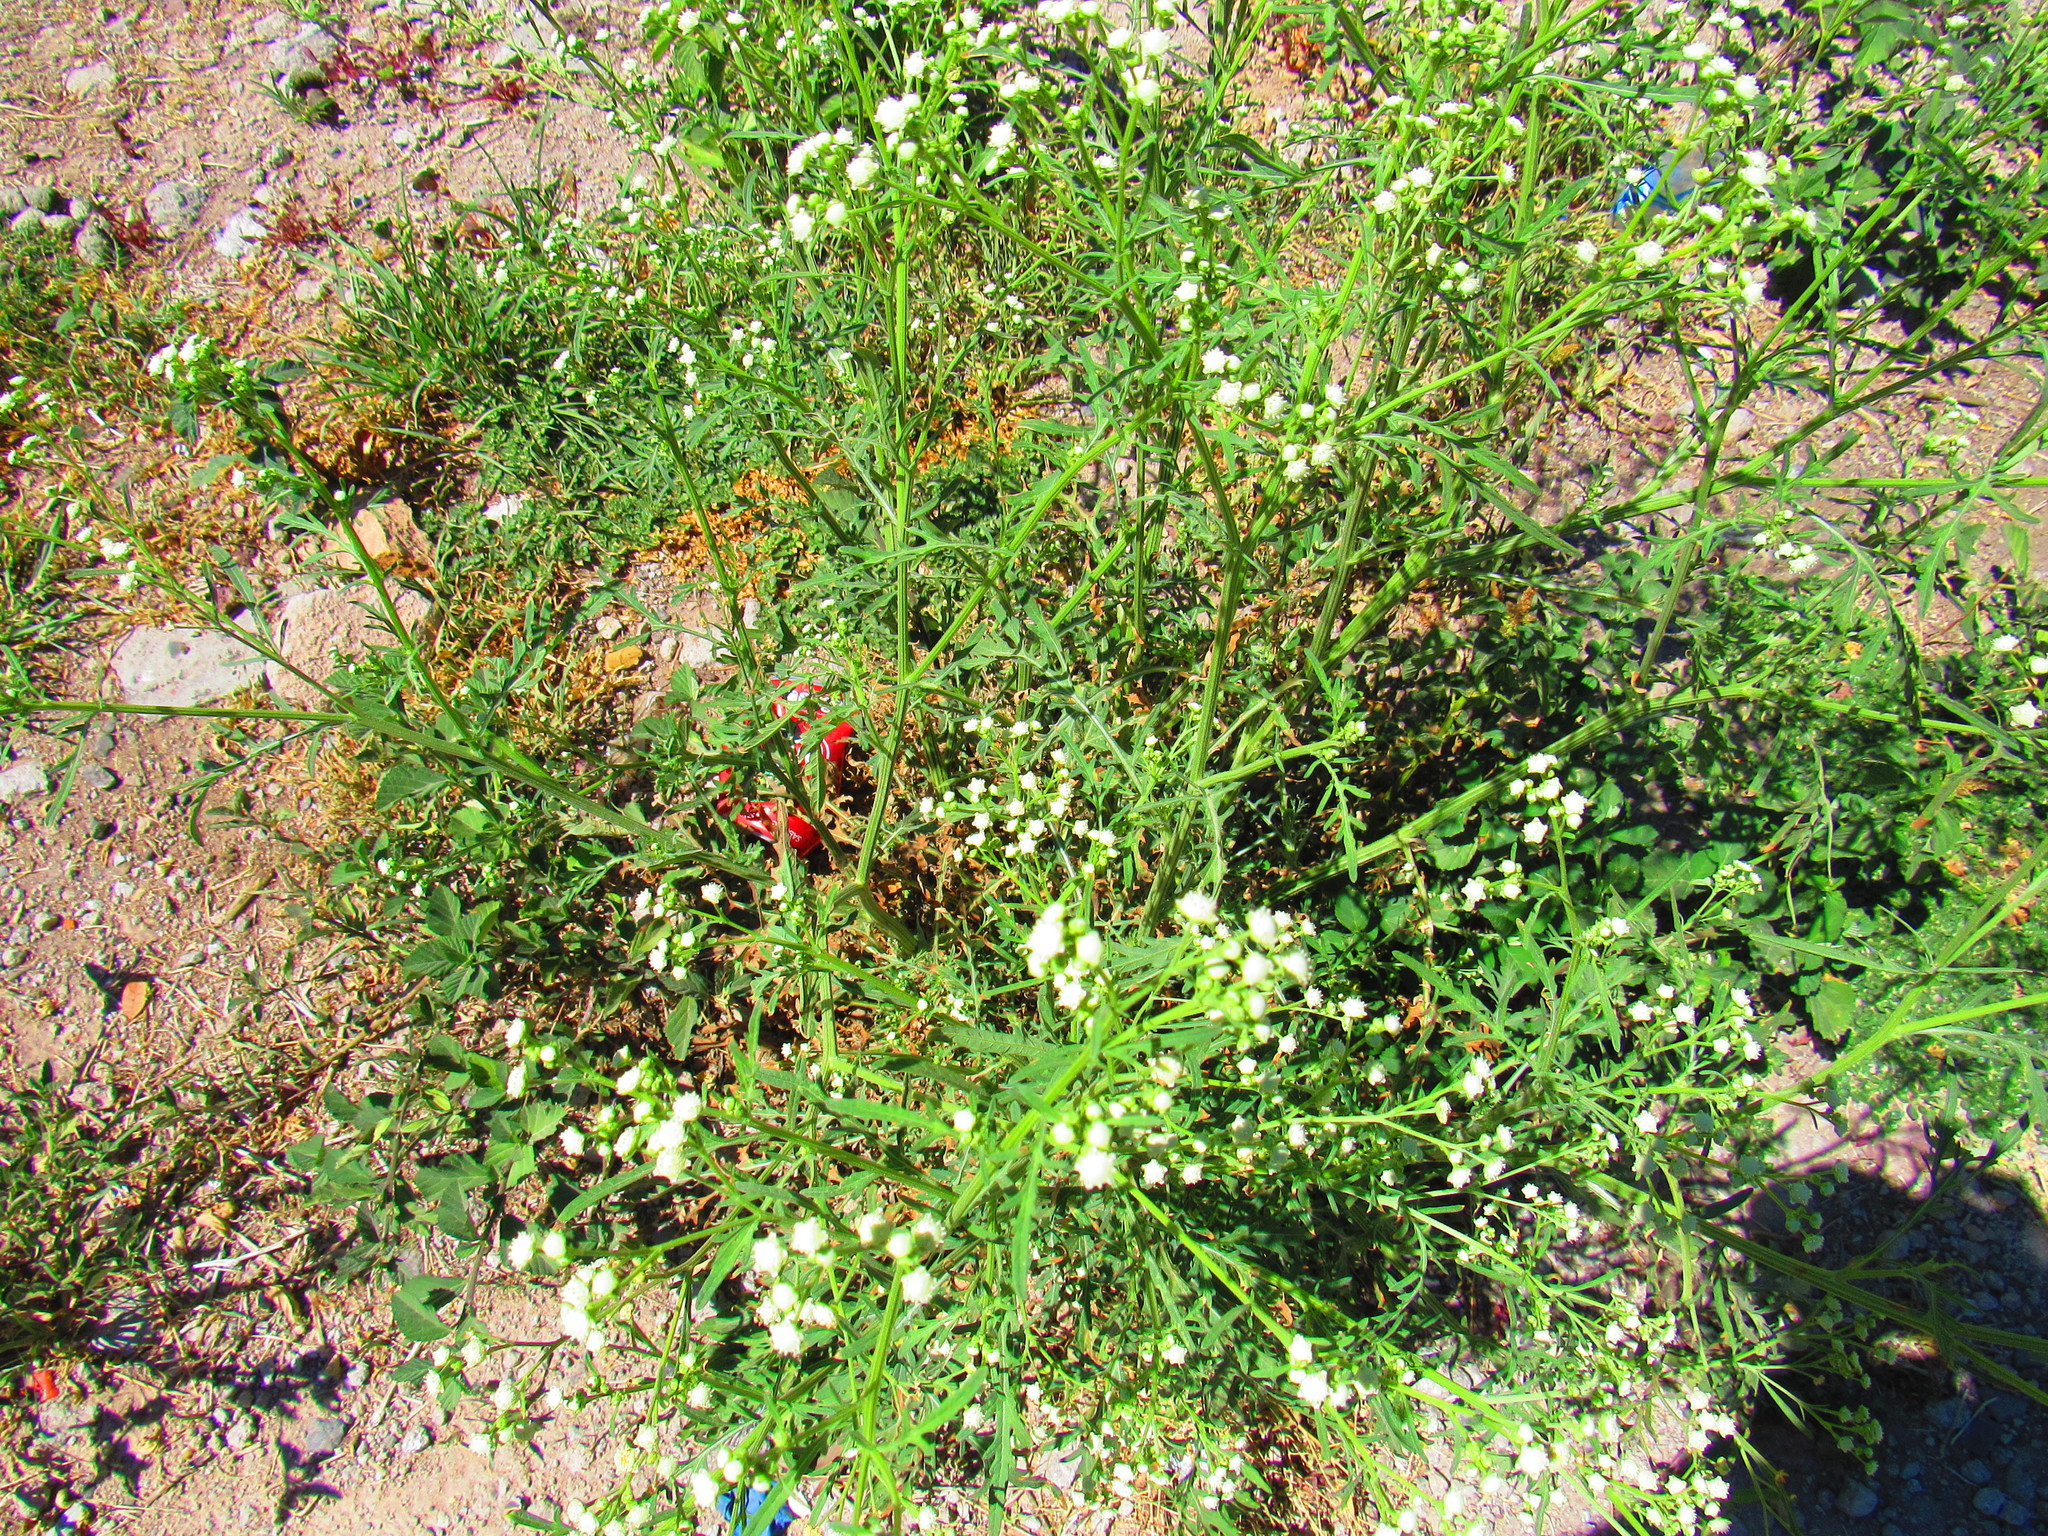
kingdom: Plantae
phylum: Tracheophyta
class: Magnoliopsida
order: Asterales
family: Asteraceae
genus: Parthenium
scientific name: Parthenium hysterophorus
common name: Santa maria feverfew
